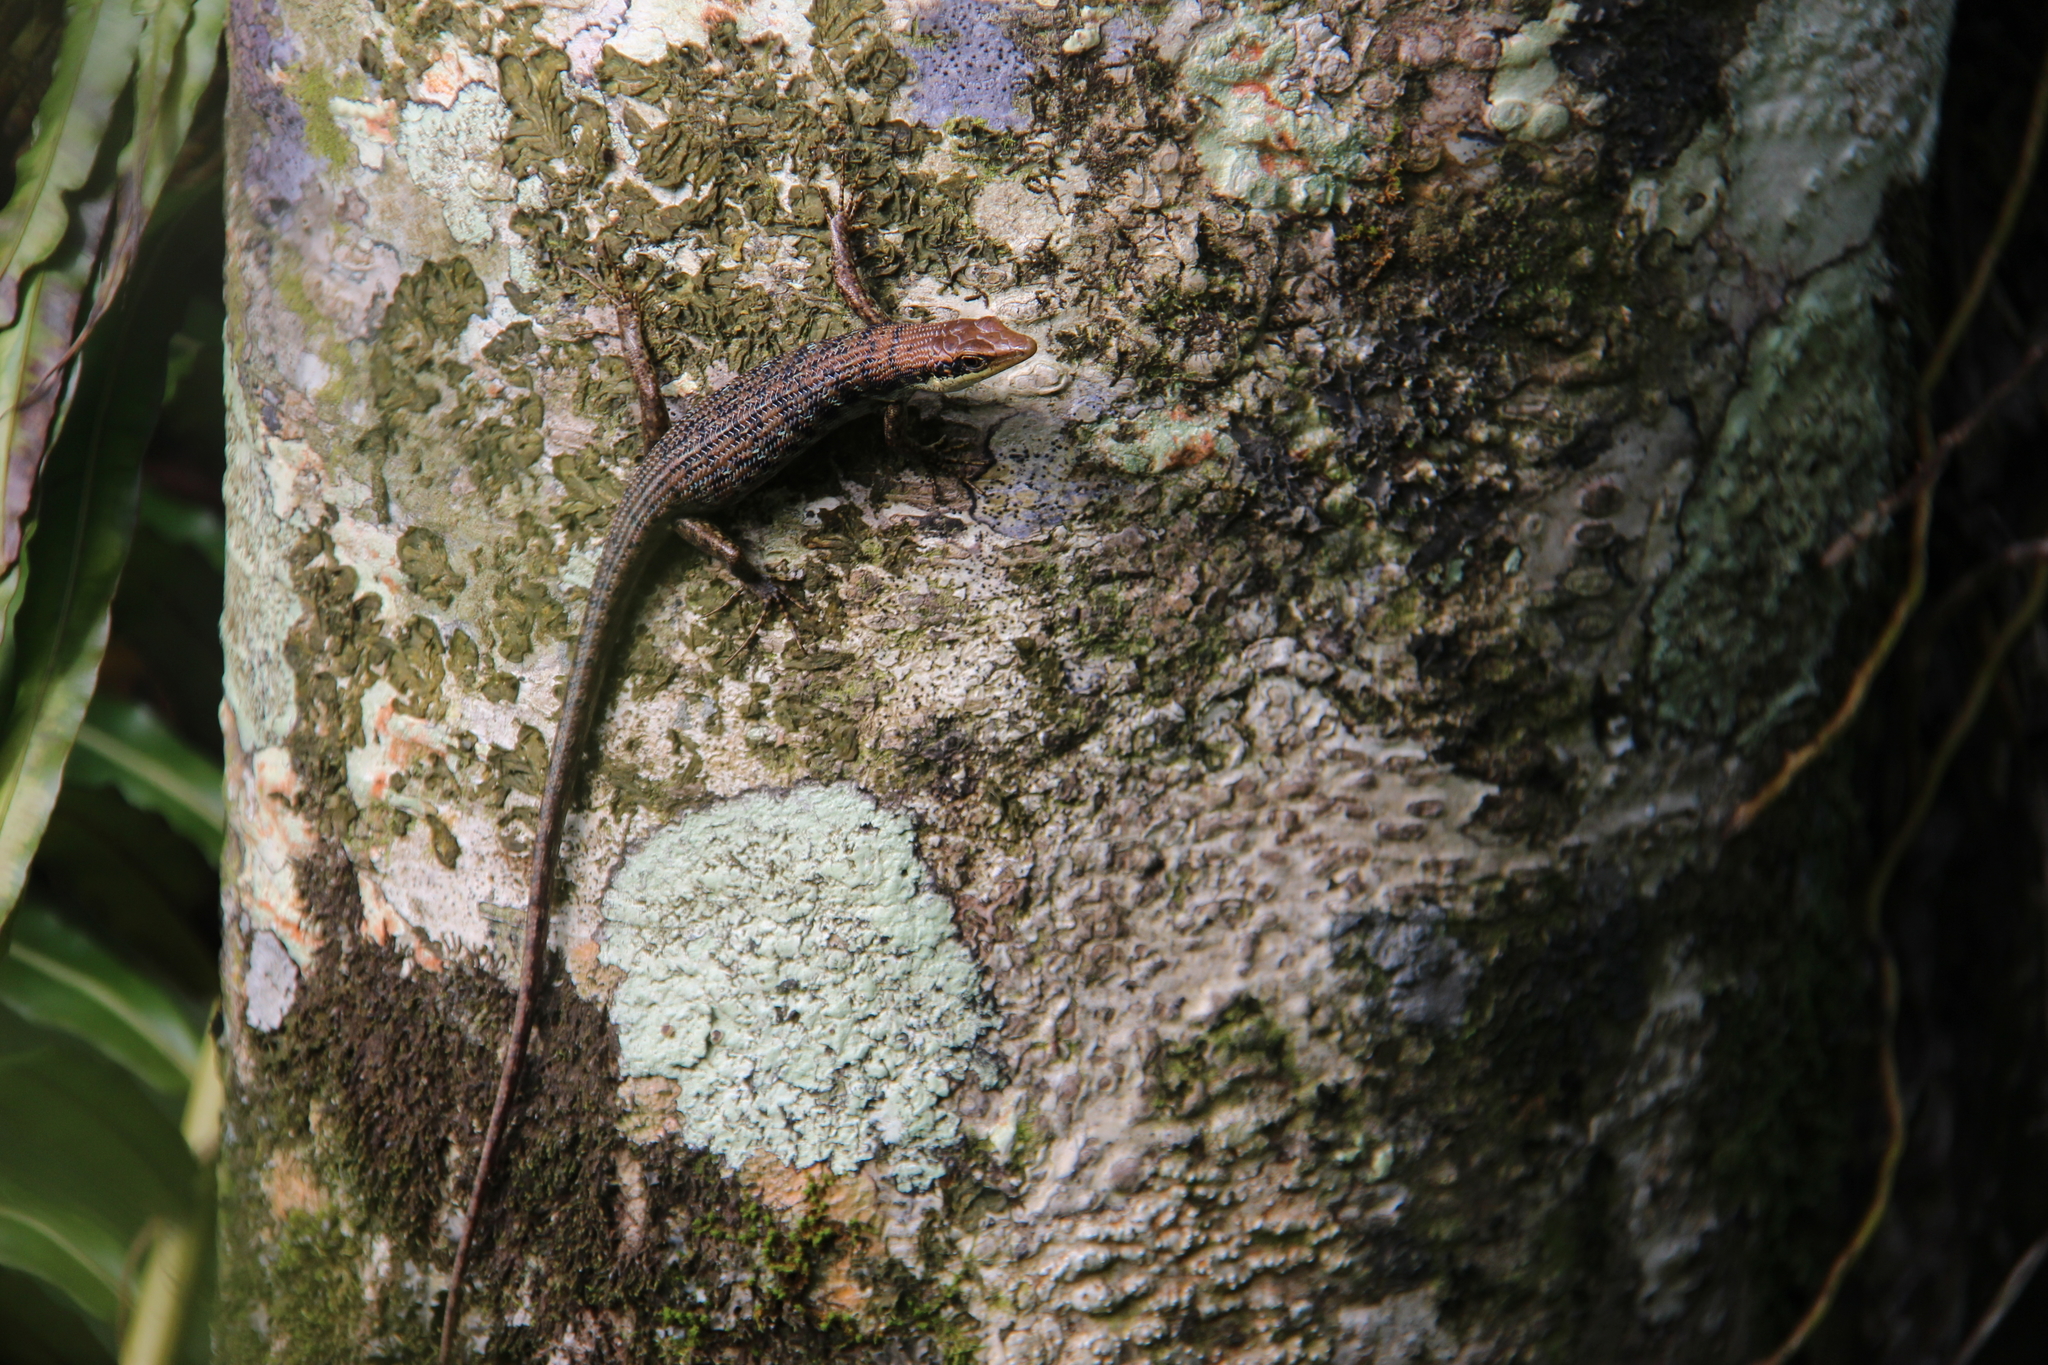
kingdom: Animalia
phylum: Chordata
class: Squamata
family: Scincidae
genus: Emoia
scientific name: Emoia tuitarere
